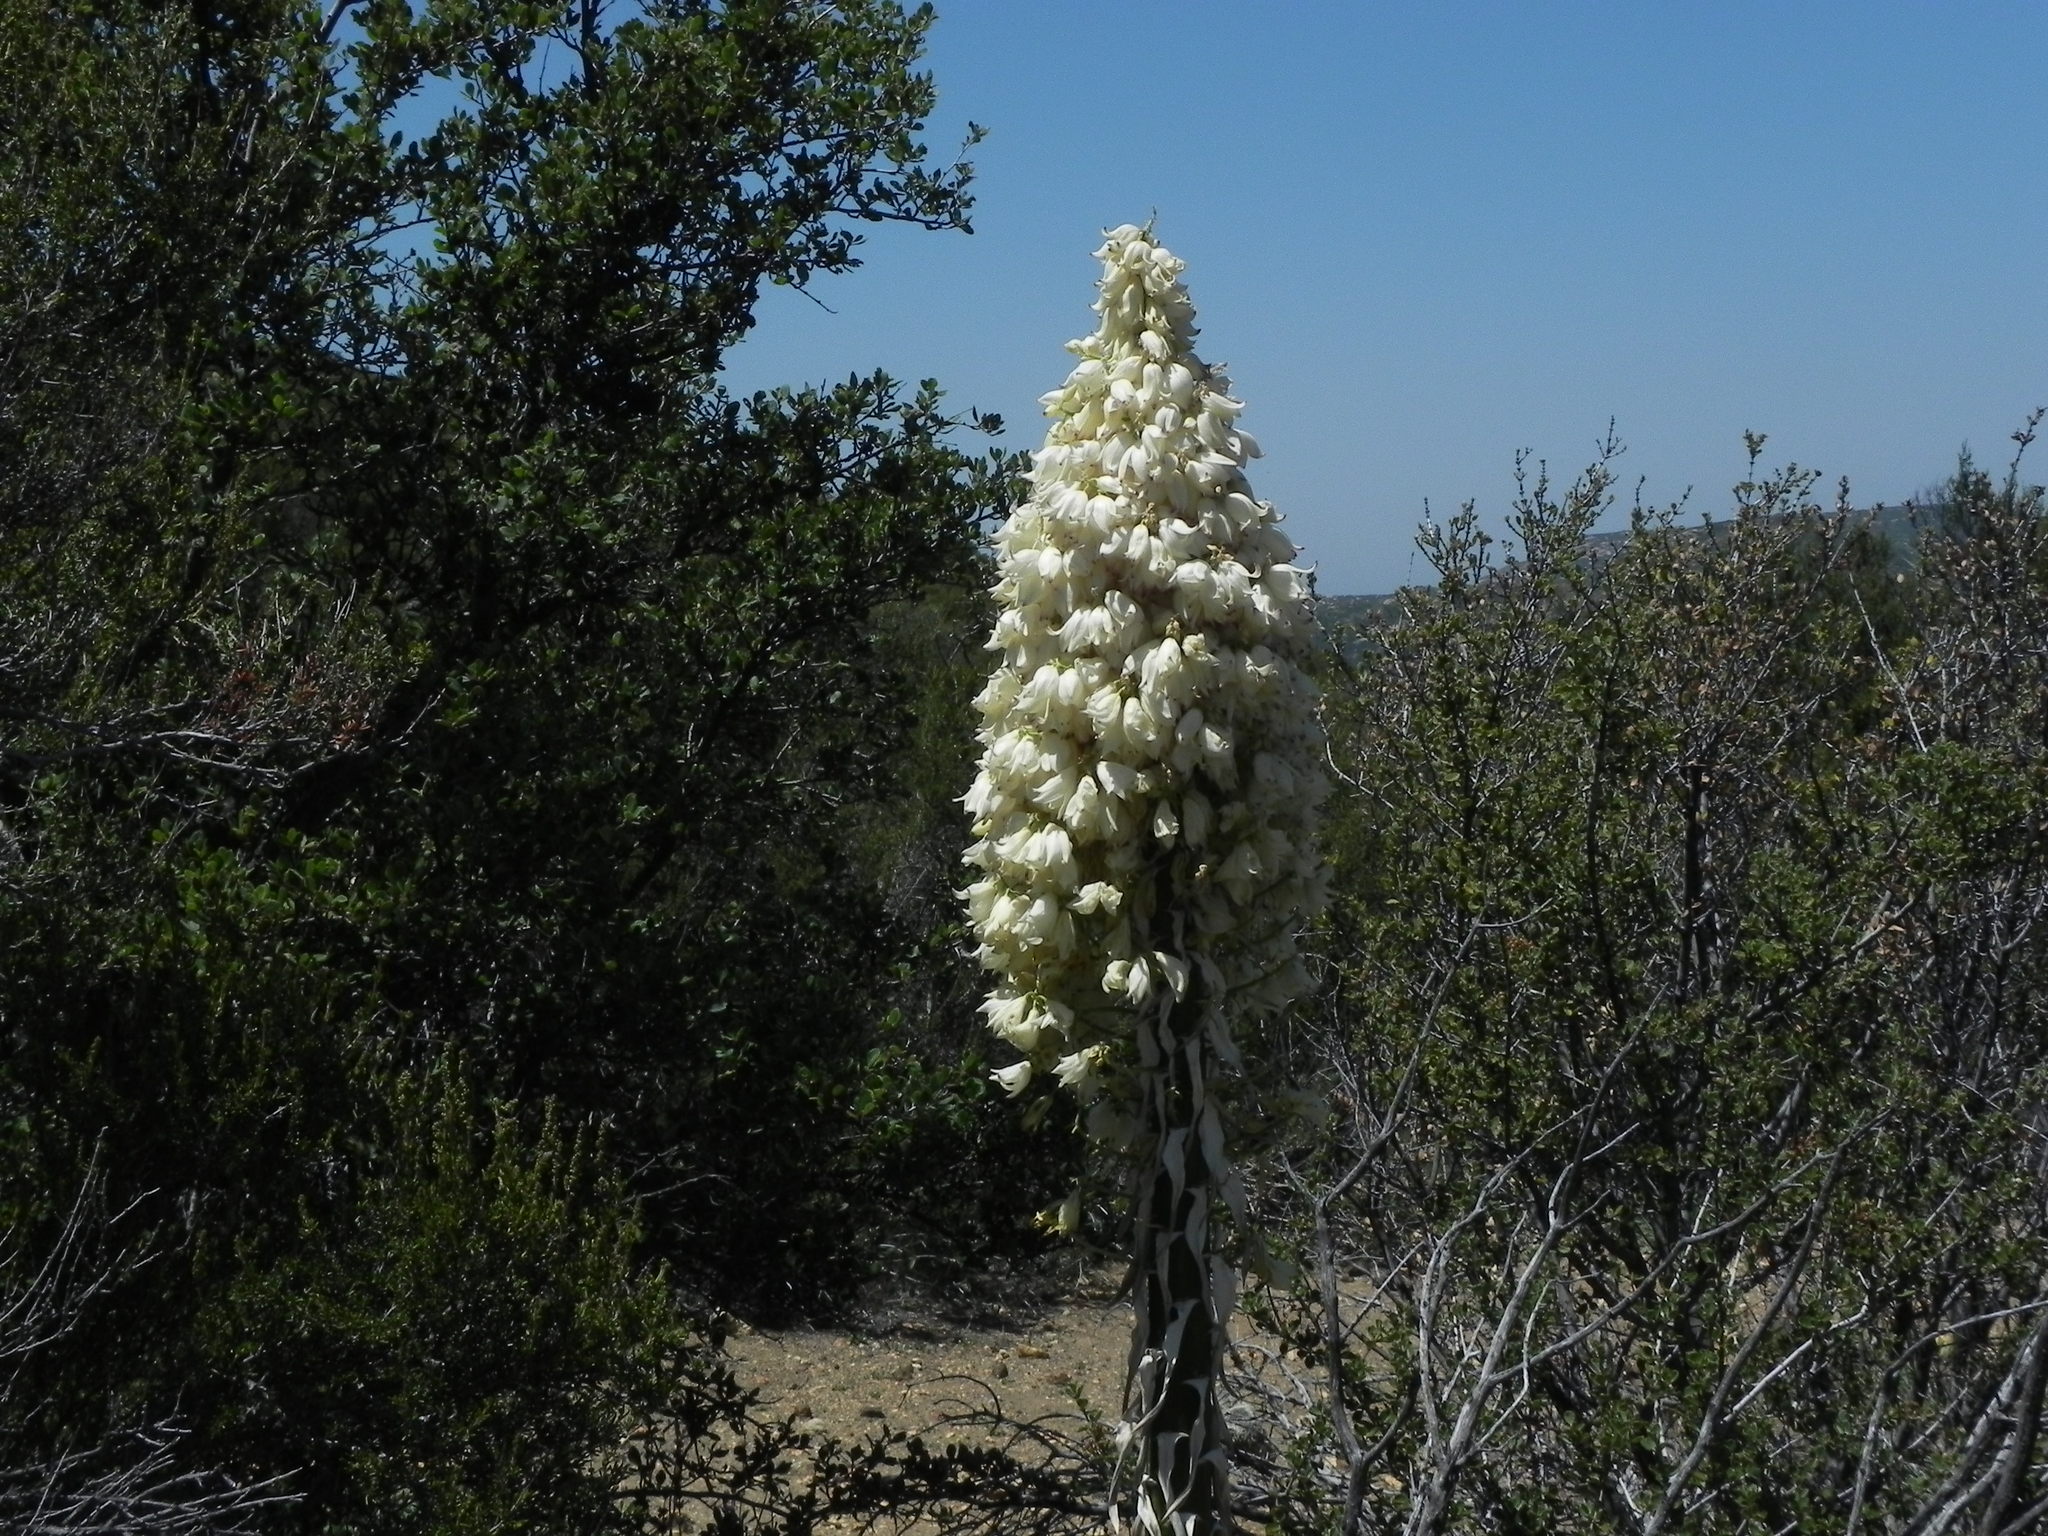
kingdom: Plantae
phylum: Tracheophyta
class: Liliopsida
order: Asparagales
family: Asparagaceae
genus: Hesperoyucca
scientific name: Hesperoyucca whipplei
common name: Our lord's-candle
